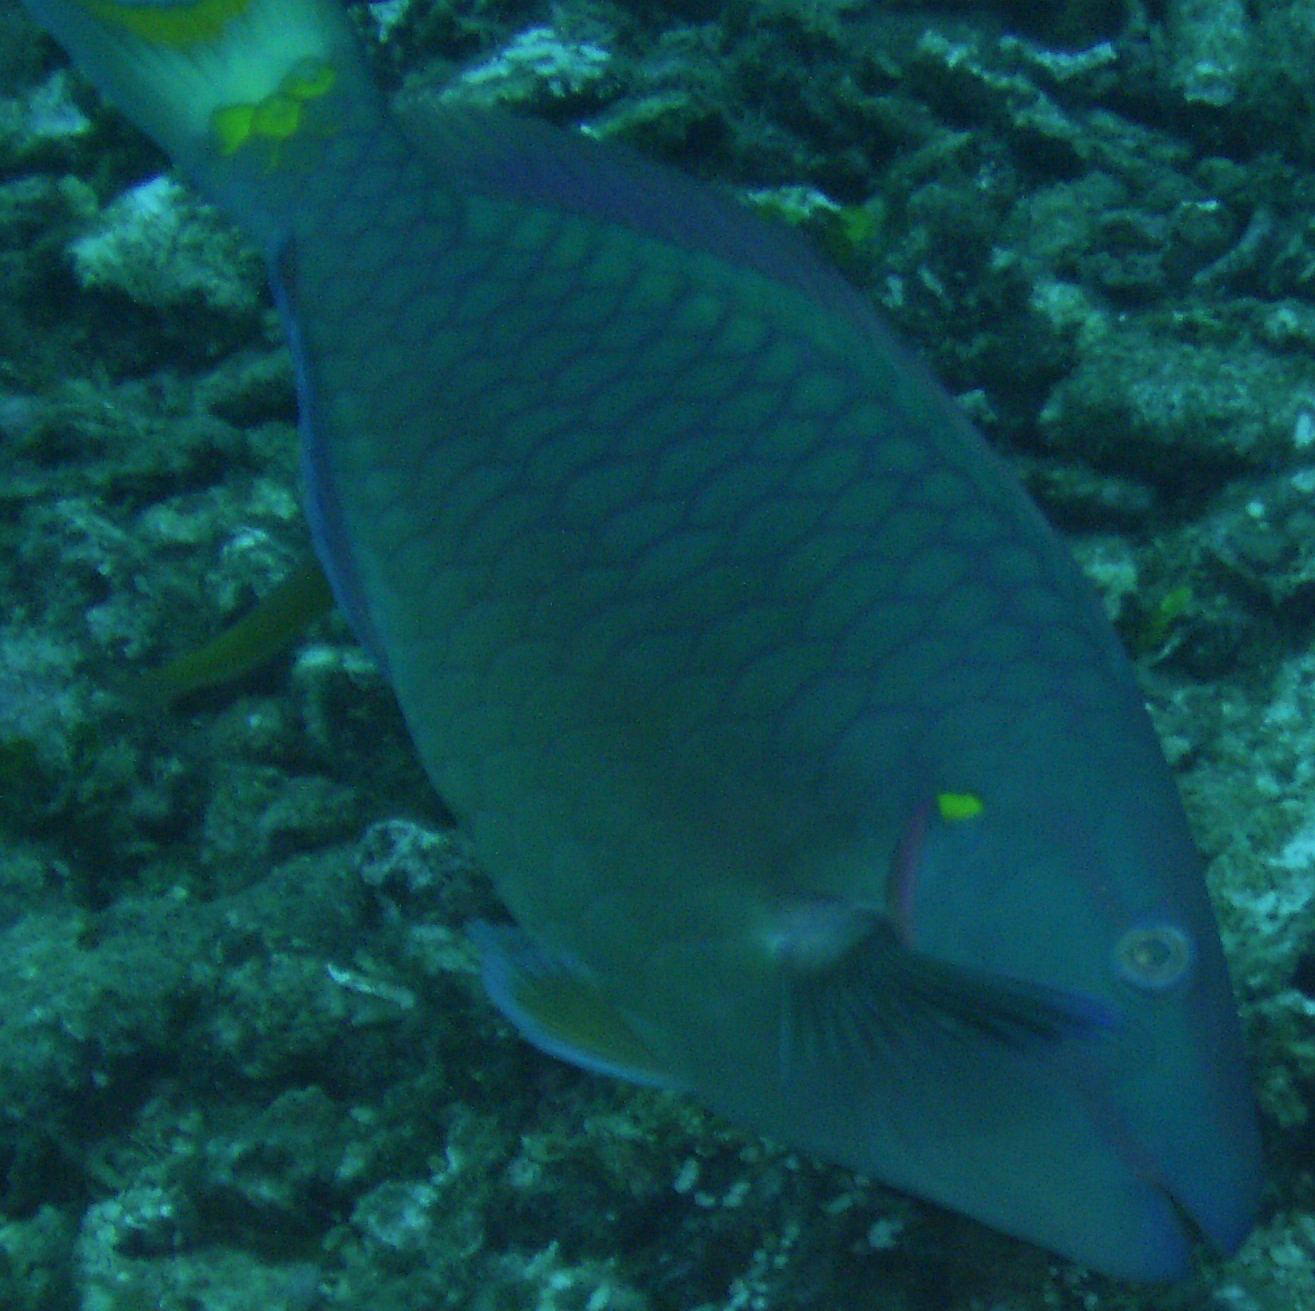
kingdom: Animalia
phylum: Chordata
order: Perciformes
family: Scaridae
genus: Sparisoma
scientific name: Sparisoma viride
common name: Stoplight parrotfish
